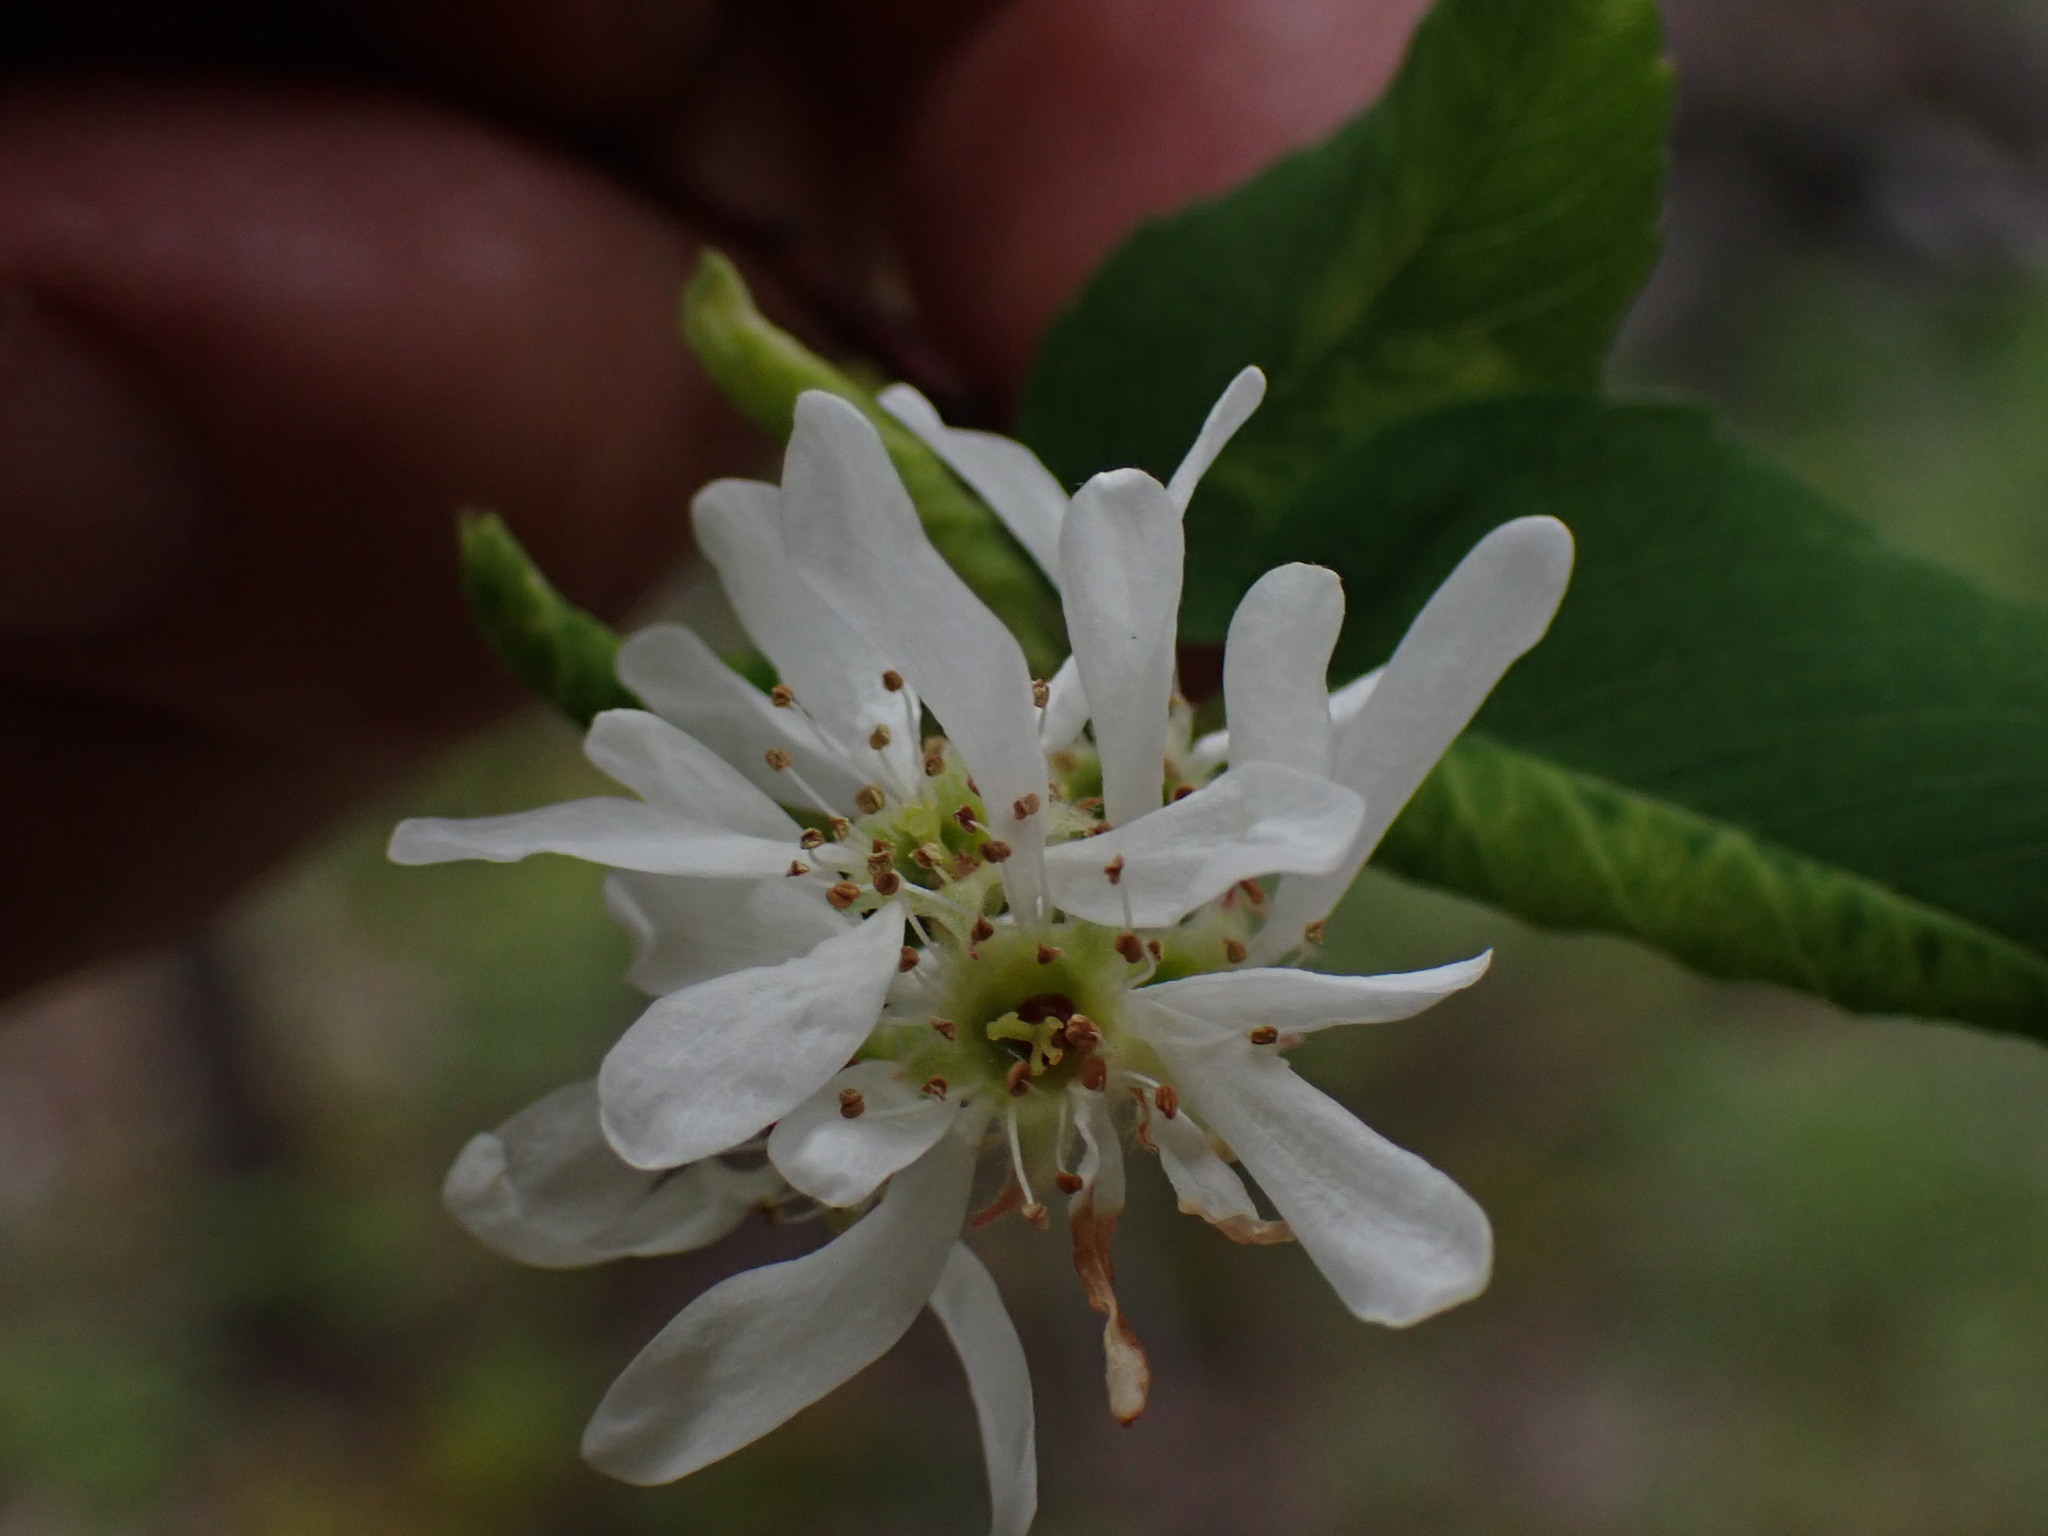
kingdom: Plantae
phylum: Tracheophyta
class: Magnoliopsida
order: Rosales
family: Rosaceae
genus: Amelanchier
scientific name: Amelanchier alnifolia
